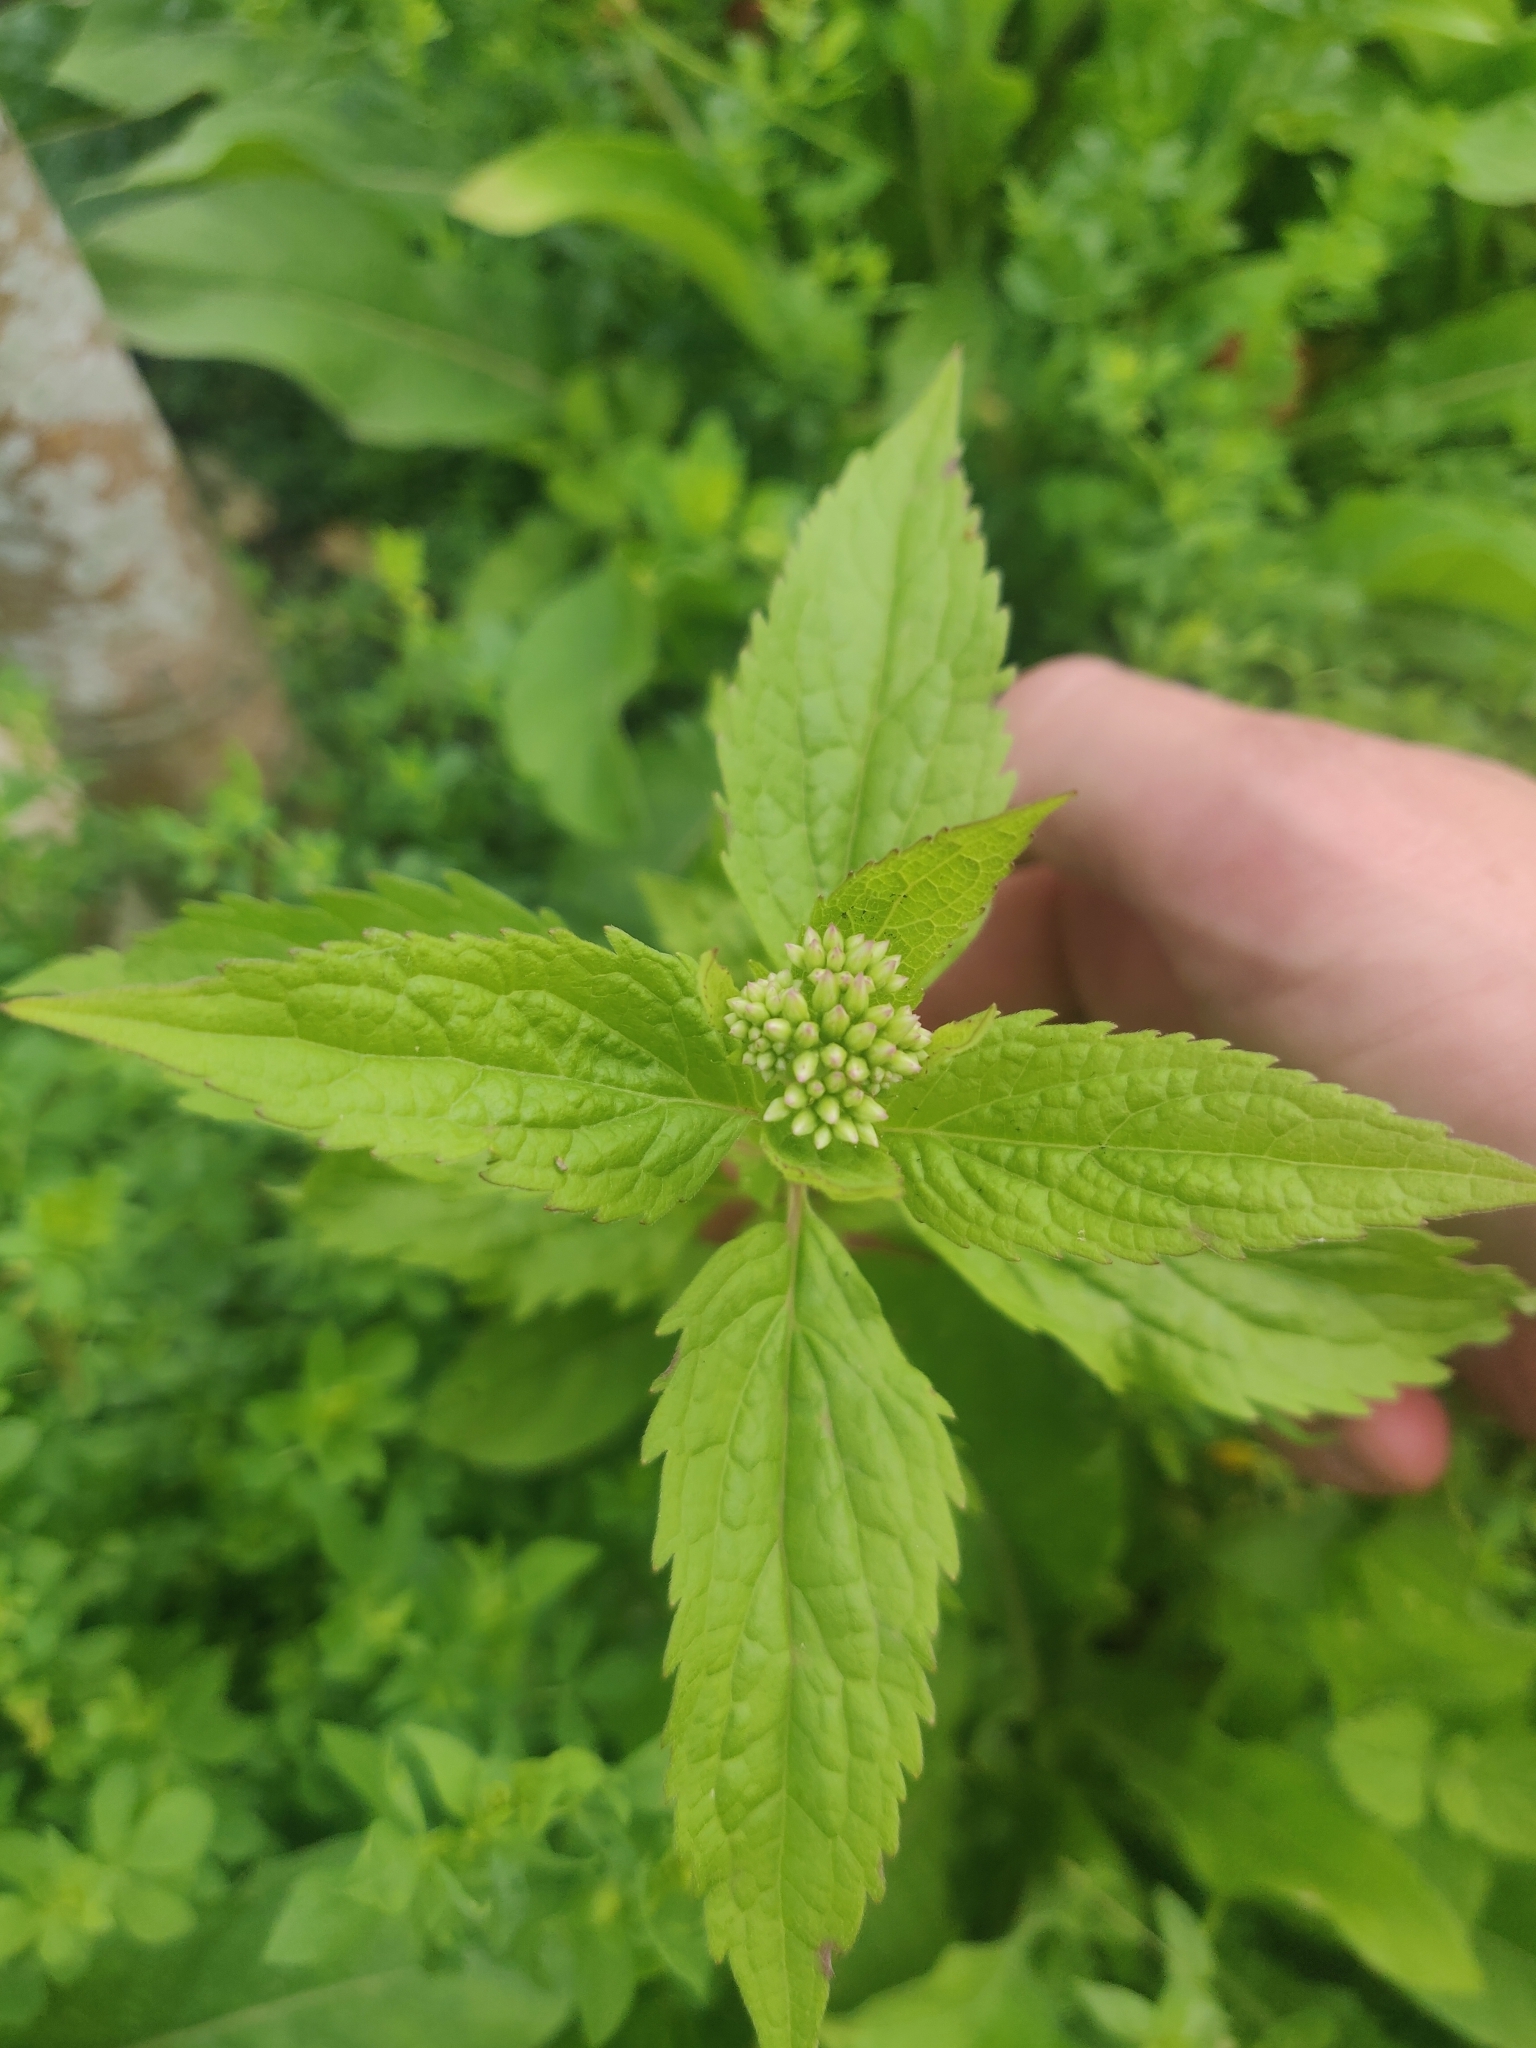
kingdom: Plantae
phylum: Tracheophyta
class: Magnoliopsida
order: Asterales
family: Asteraceae
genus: Eupatorium
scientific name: Eupatorium cannabinum
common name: Hemp-agrimony
